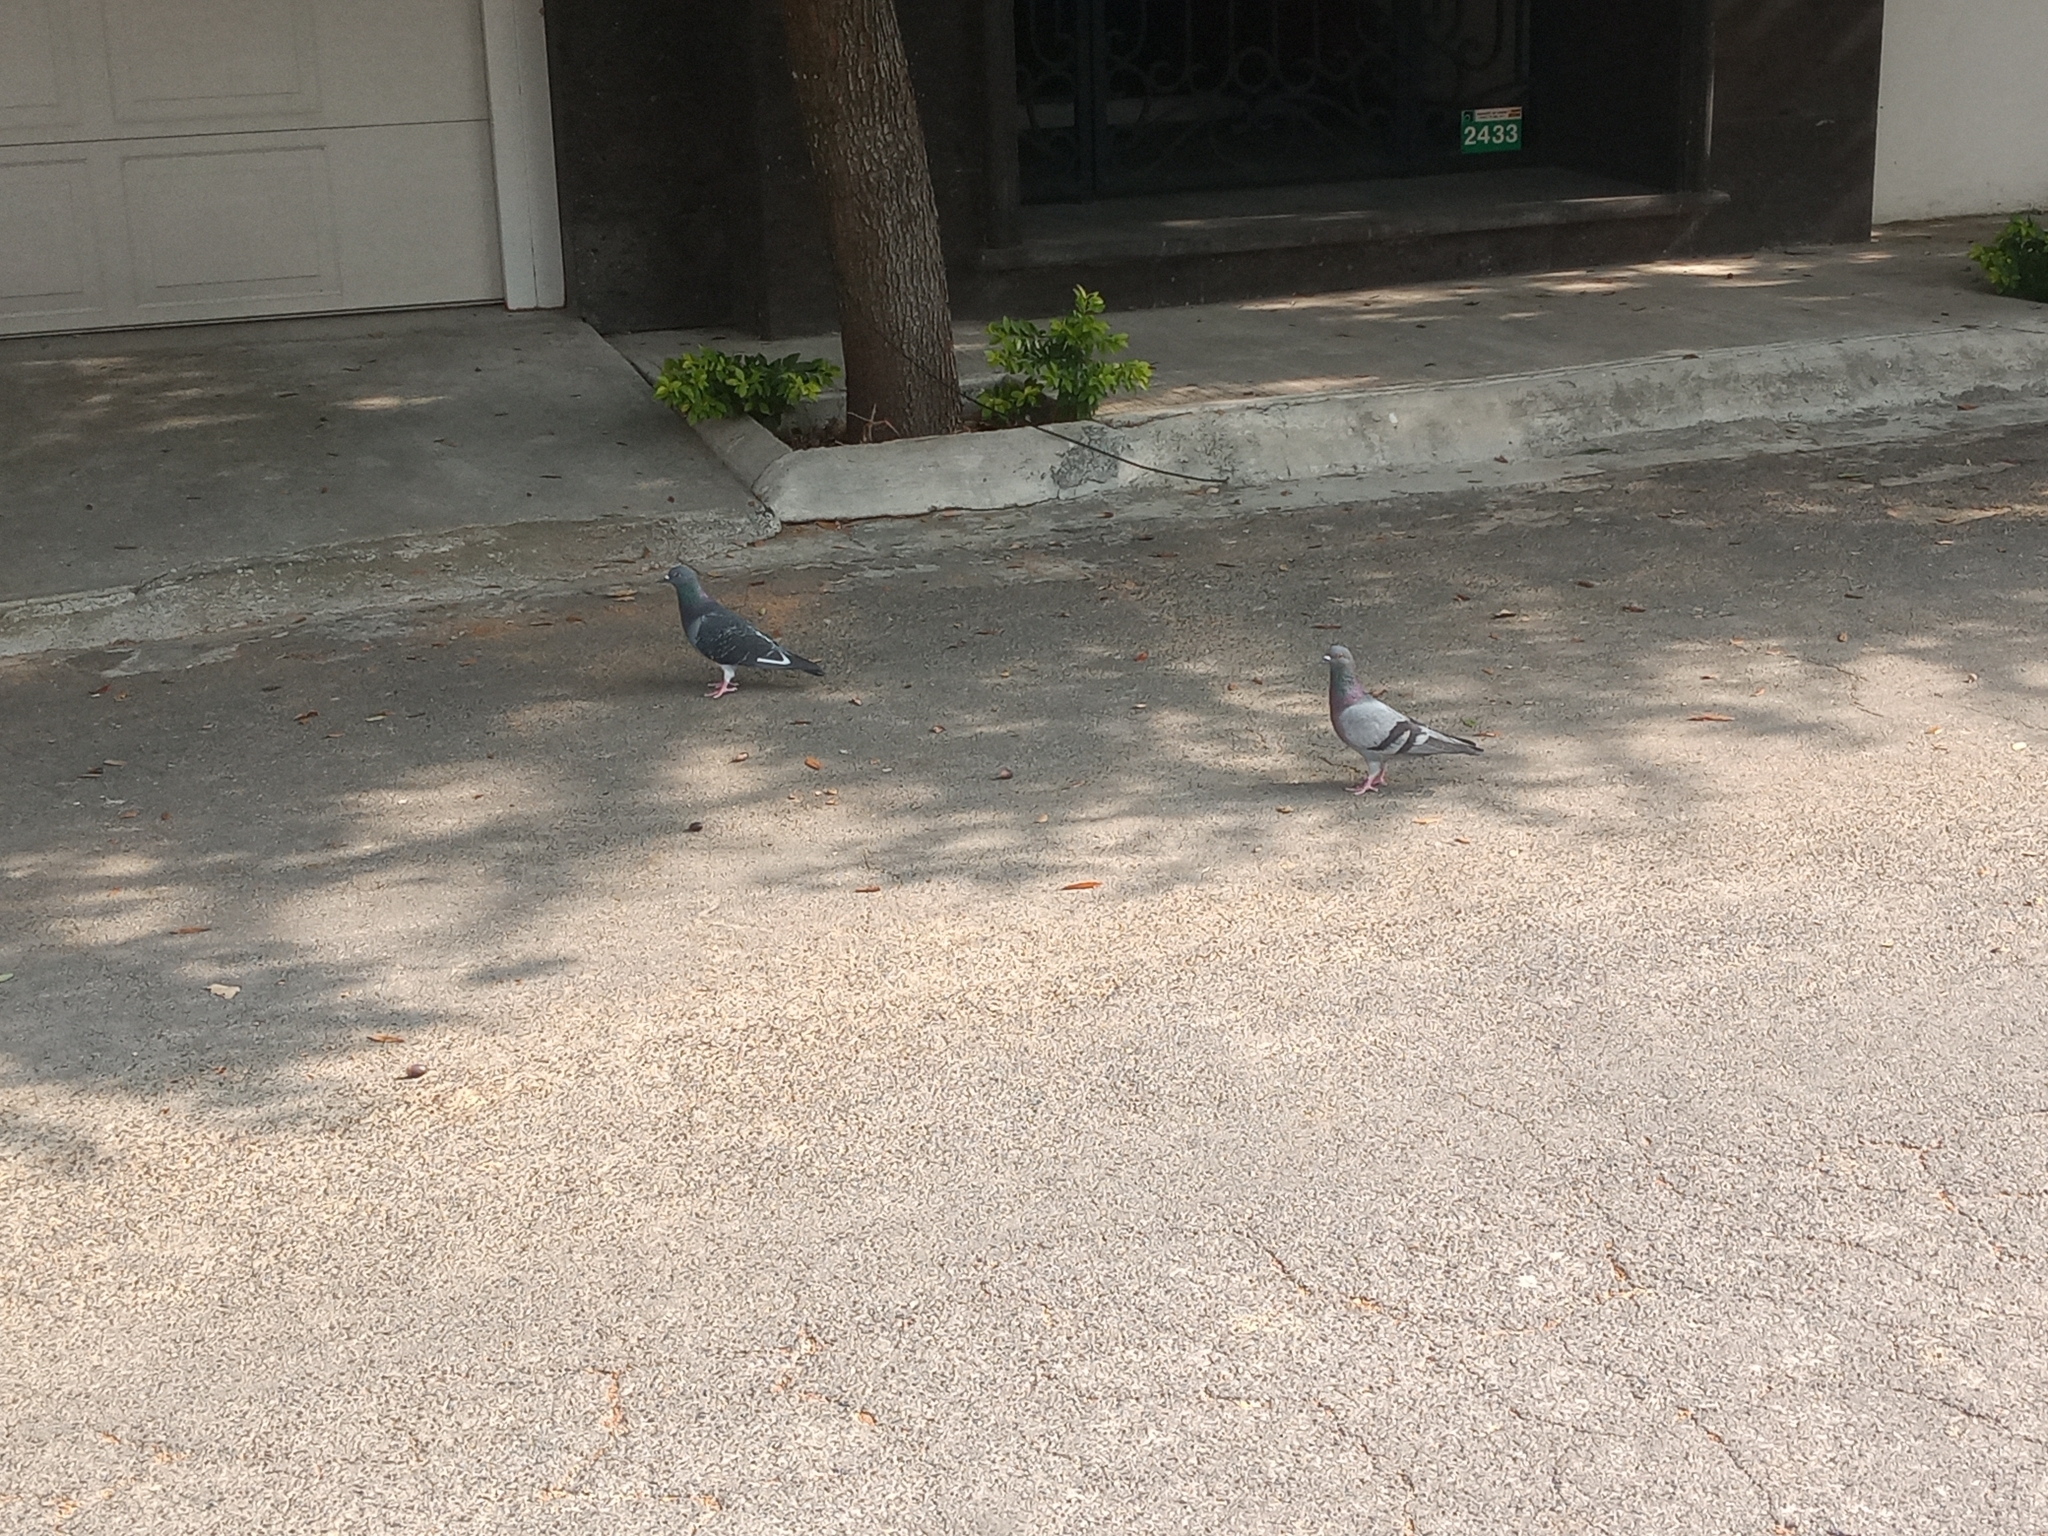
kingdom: Animalia
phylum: Chordata
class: Aves
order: Columbiformes
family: Columbidae
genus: Columba
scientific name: Columba livia
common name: Rock pigeon
